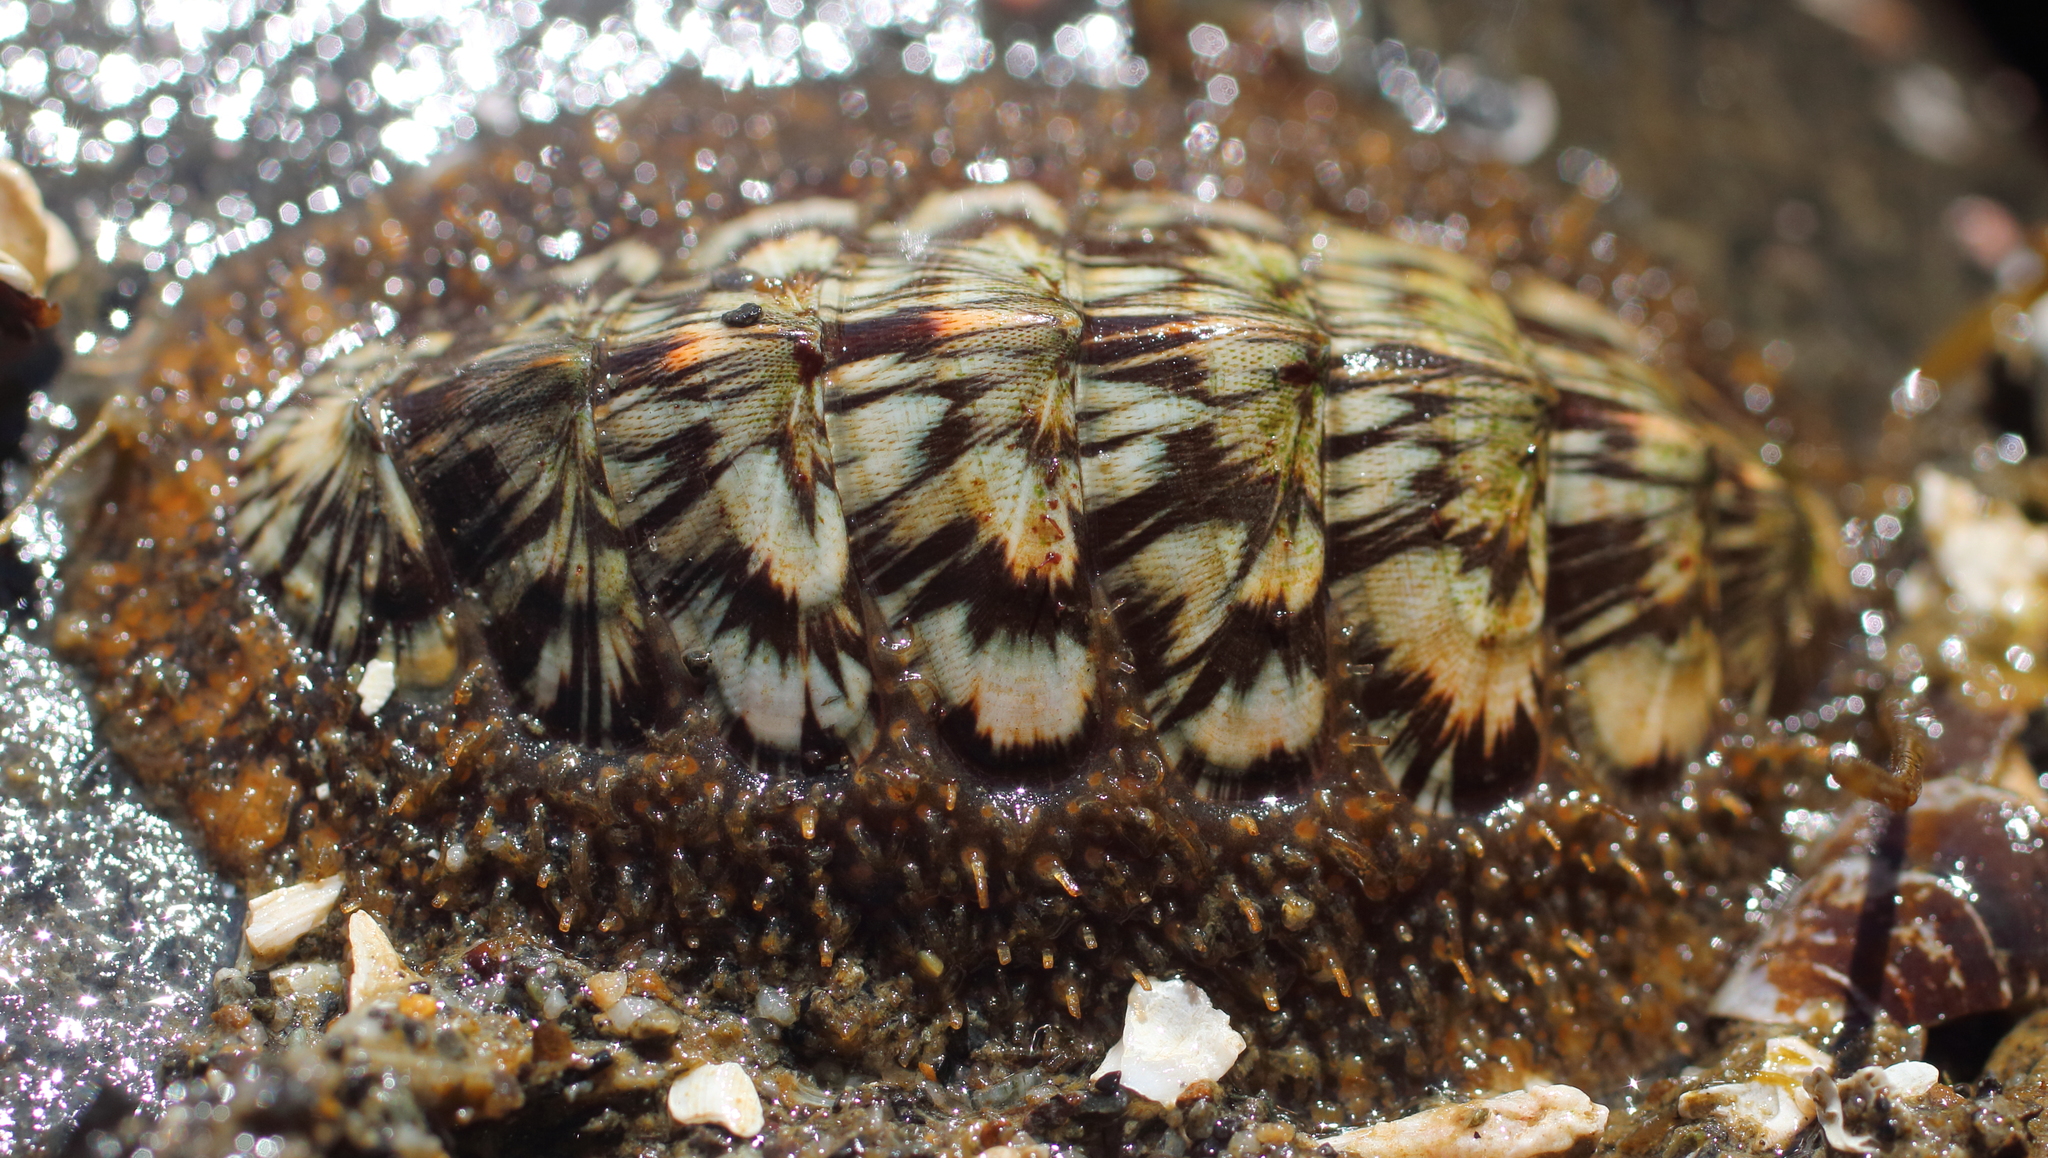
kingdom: Animalia
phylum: Mollusca
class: Polyplacophora
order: Chitonida
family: Mopaliidae
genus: Mopalia
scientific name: Mopalia lignosa
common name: Woody chiton
